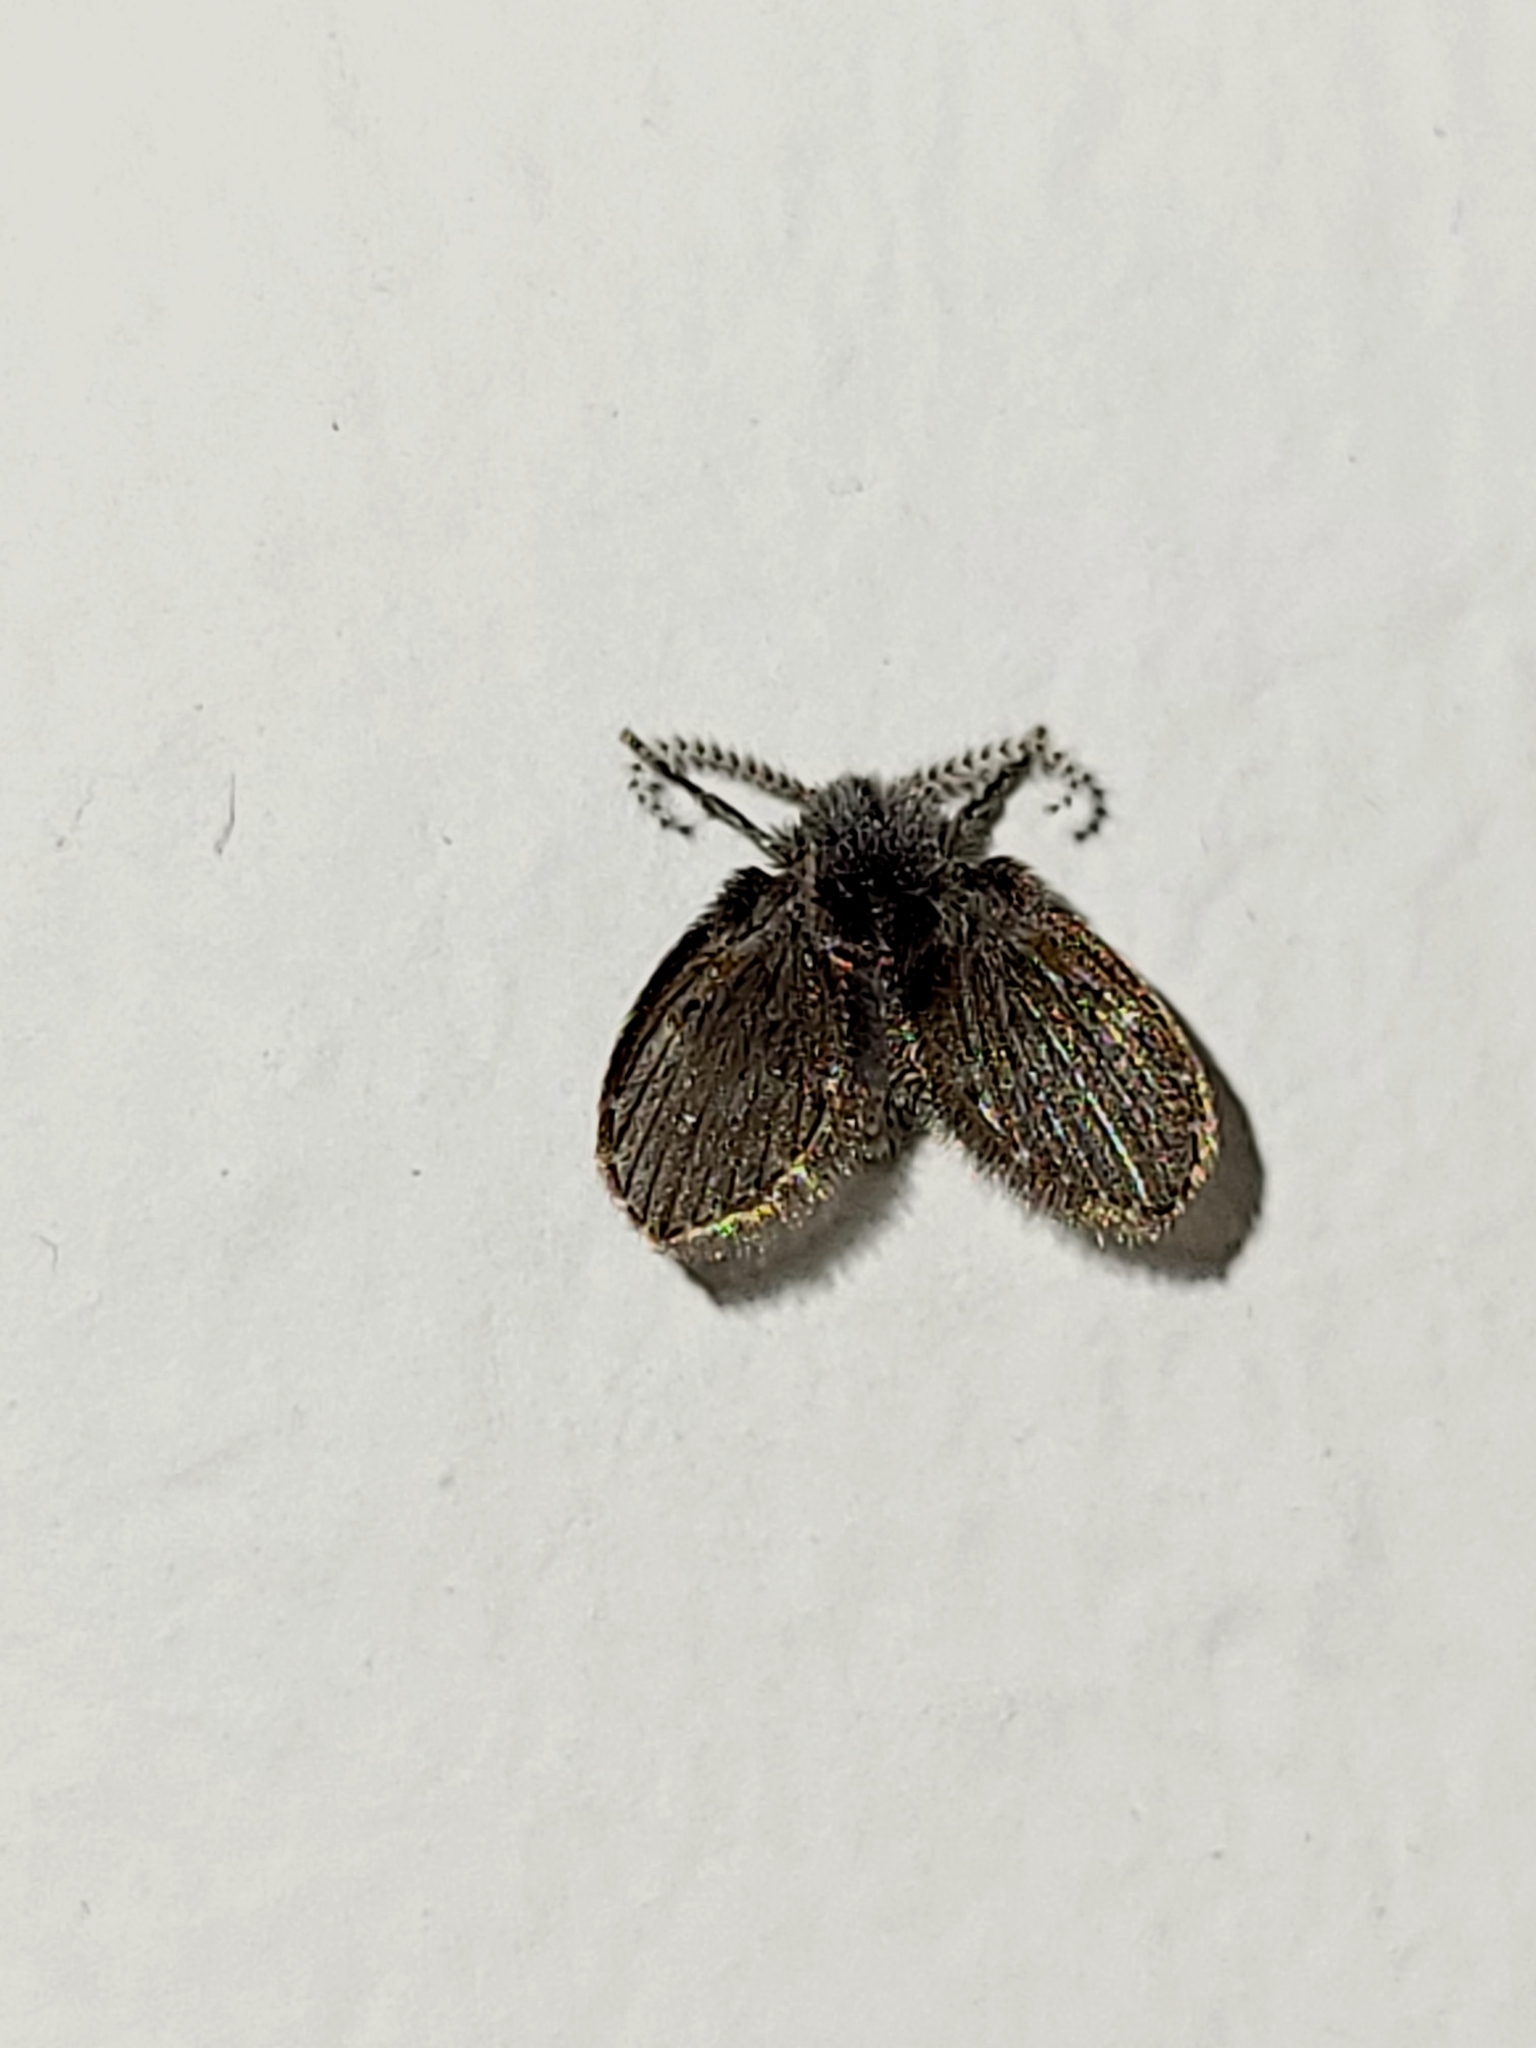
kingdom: Animalia
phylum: Arthropoda
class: Insecta
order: Diptera
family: Psychodidae
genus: Clogmia
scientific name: Clogmia albipunctatus
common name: White-spotted moth fly
